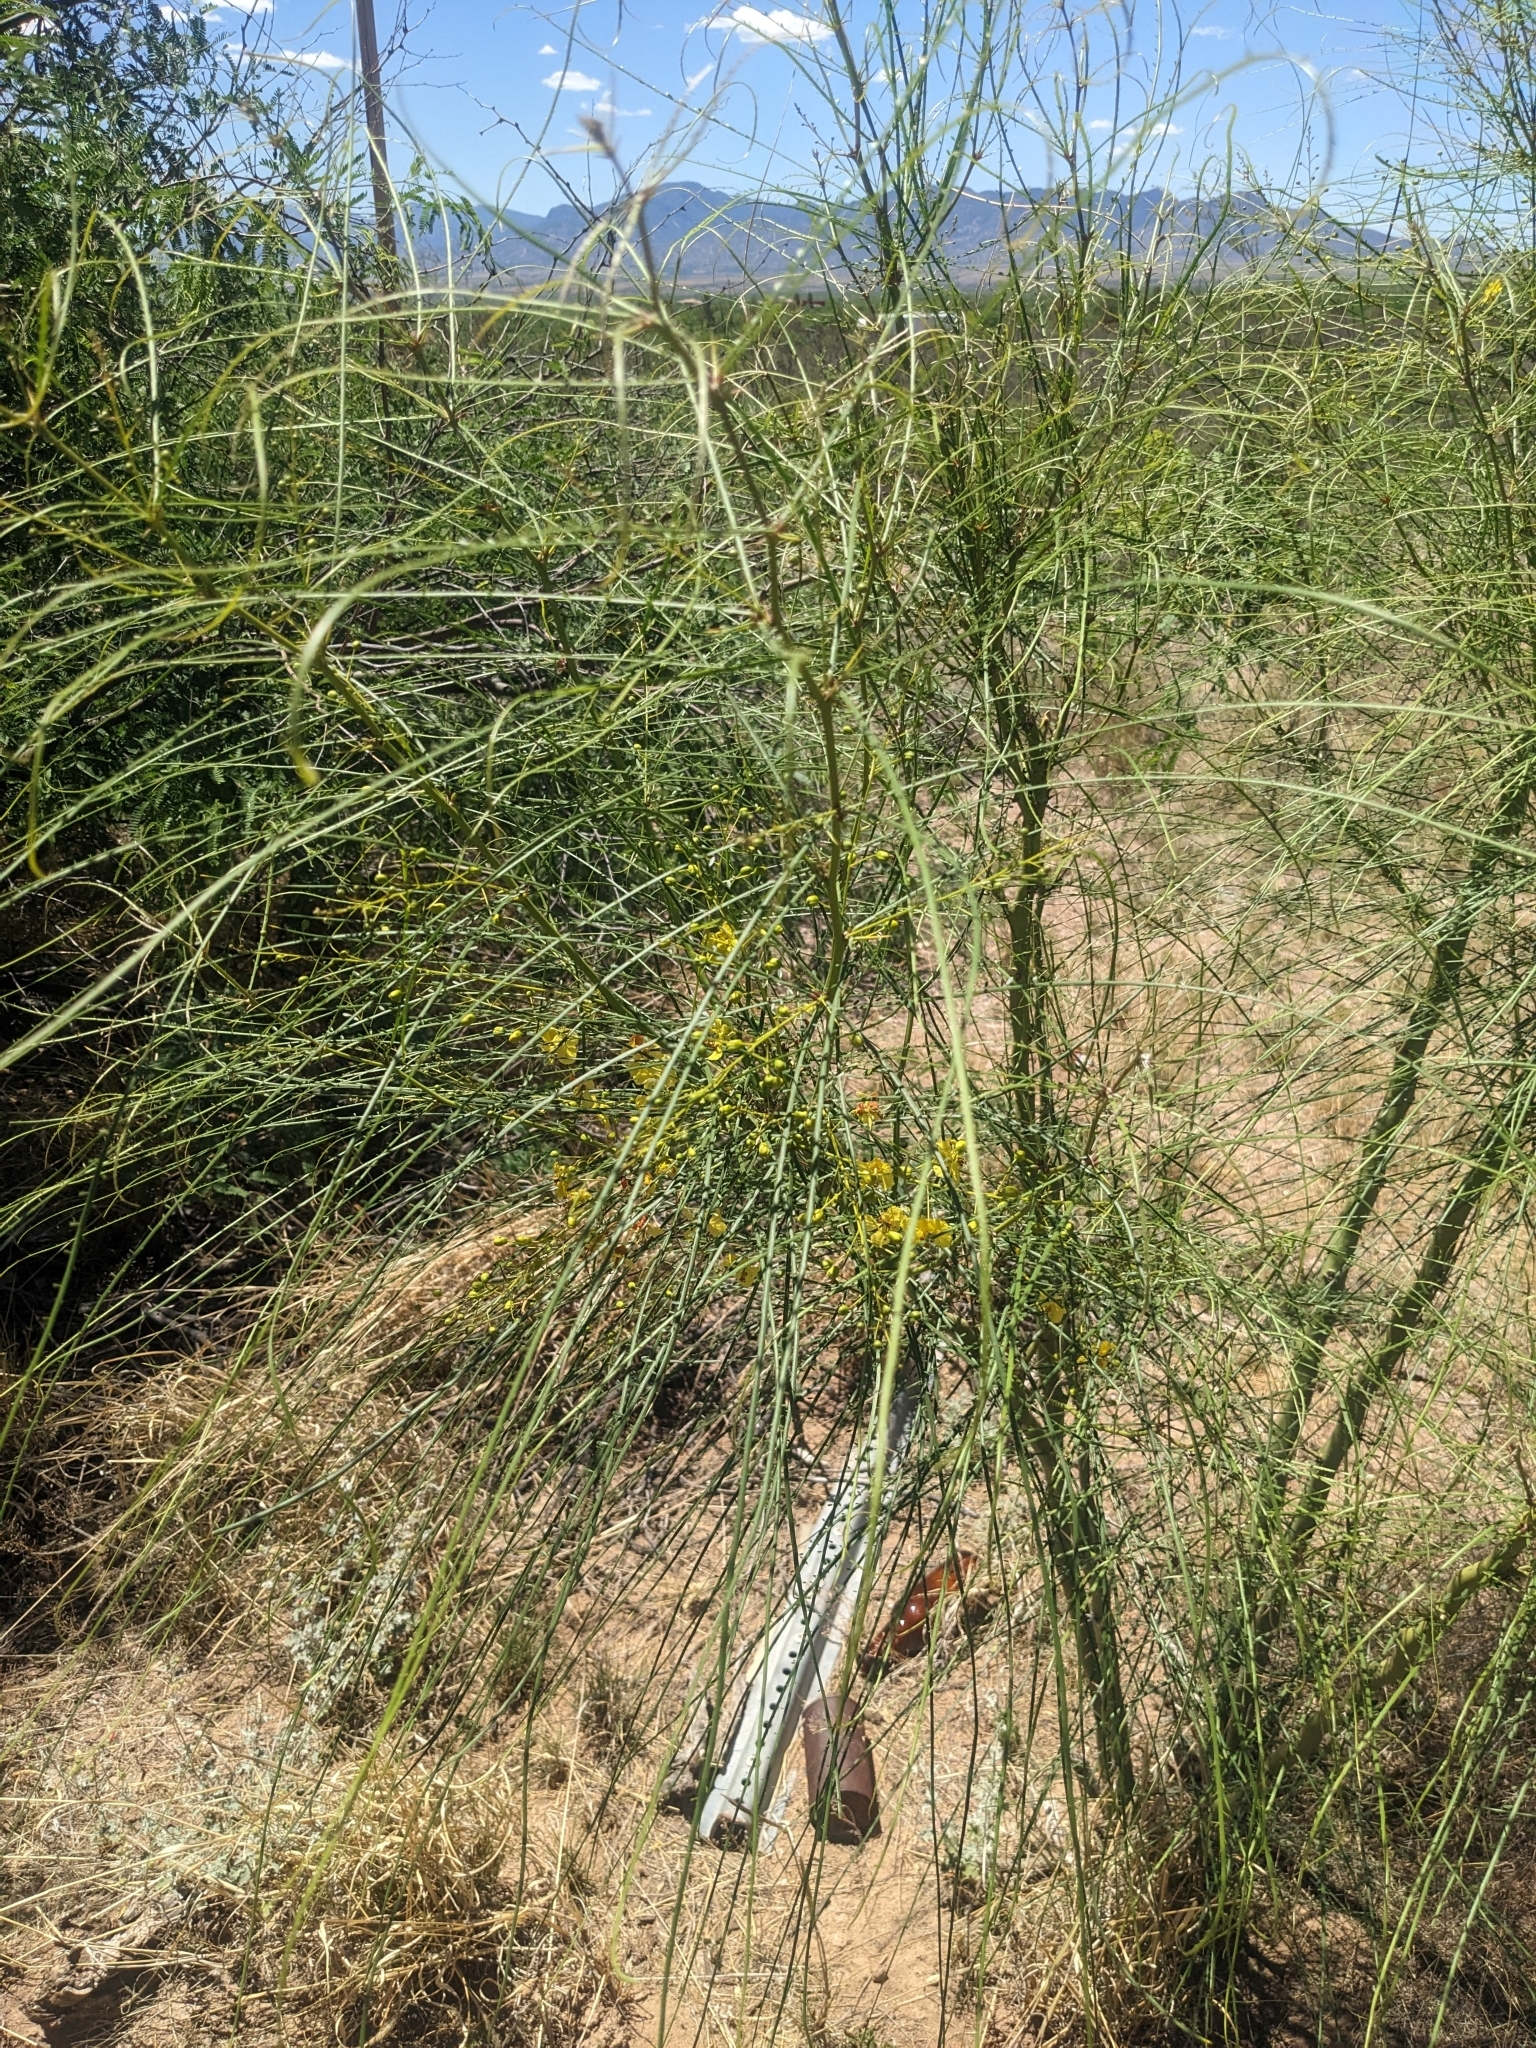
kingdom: Plantae
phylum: Tracheophyta
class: Magnoliopsida
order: Fabales
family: Fabaceae
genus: Parkinsonia
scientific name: Parkinsonia aculeata
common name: Jerusalem thorn
